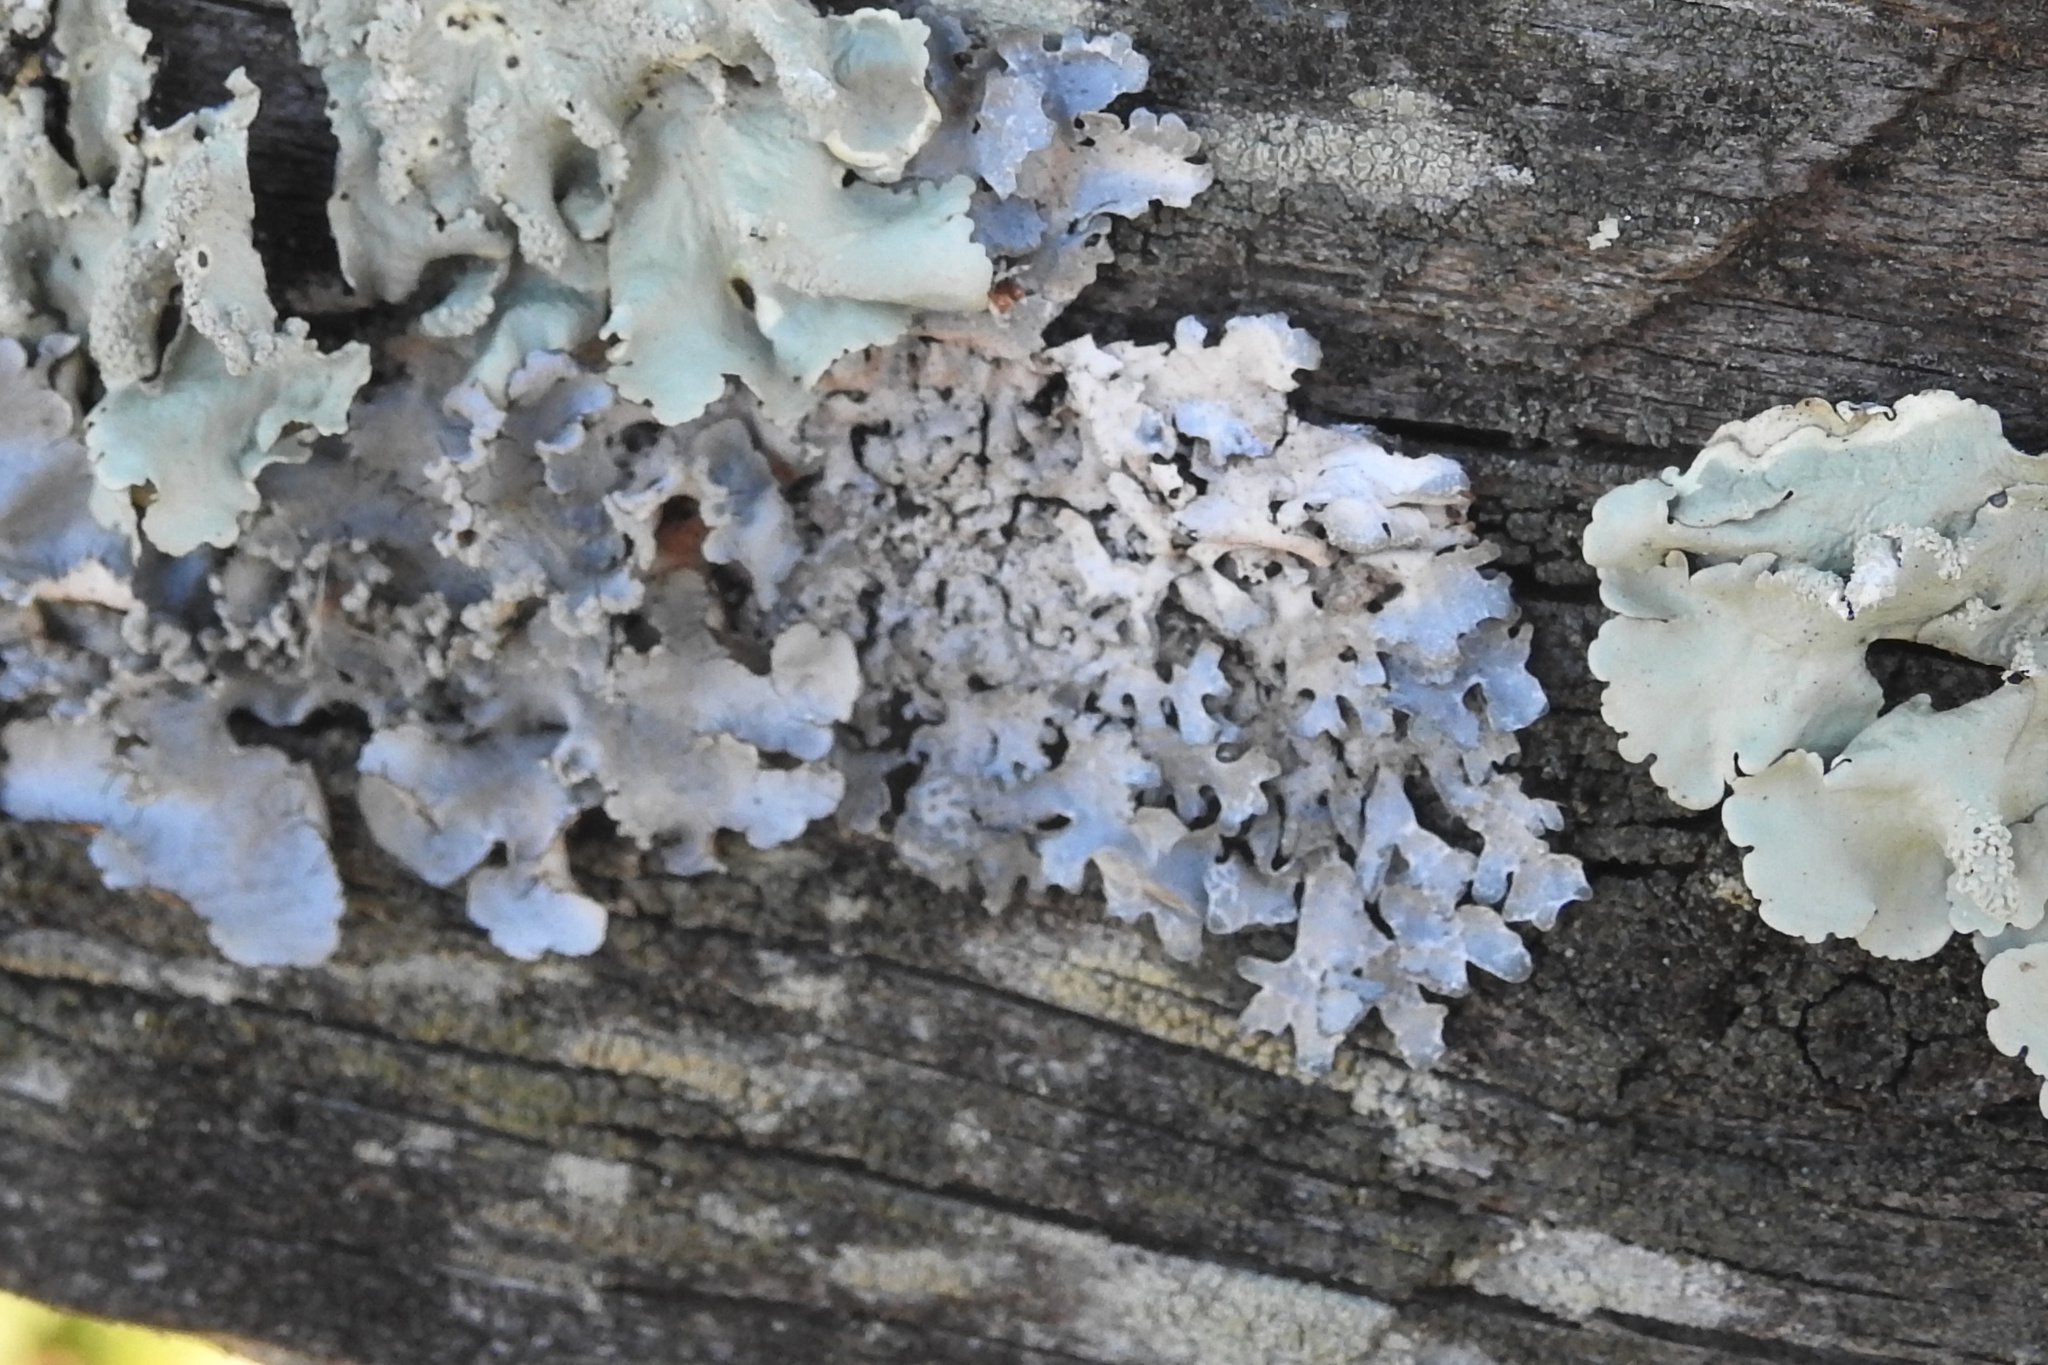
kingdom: Fungi
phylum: Ascomycota
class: Lecanoromycetes
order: Lecanorales
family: Parmeliaceae
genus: Parmelia
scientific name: Parmelia sulcata
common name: Netted shield lichen
